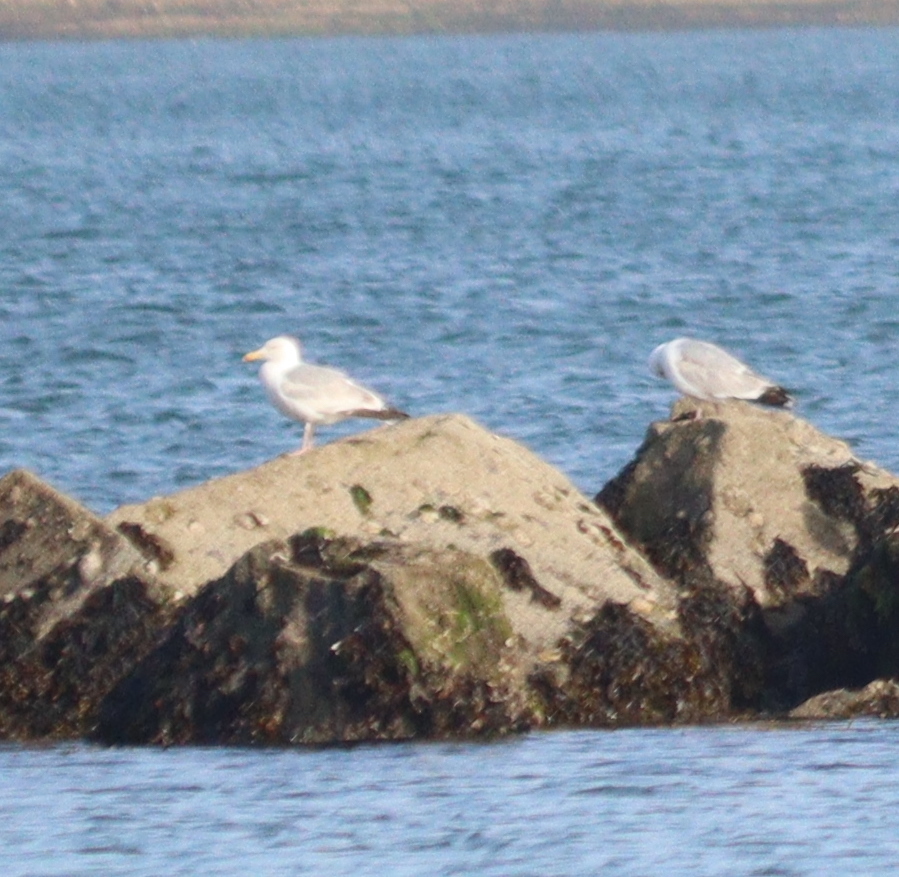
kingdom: Animalia
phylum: Chordata
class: Aves
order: Charadriiformes
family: Laridae
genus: Larus
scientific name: Larus argentatus
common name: Herring gull
